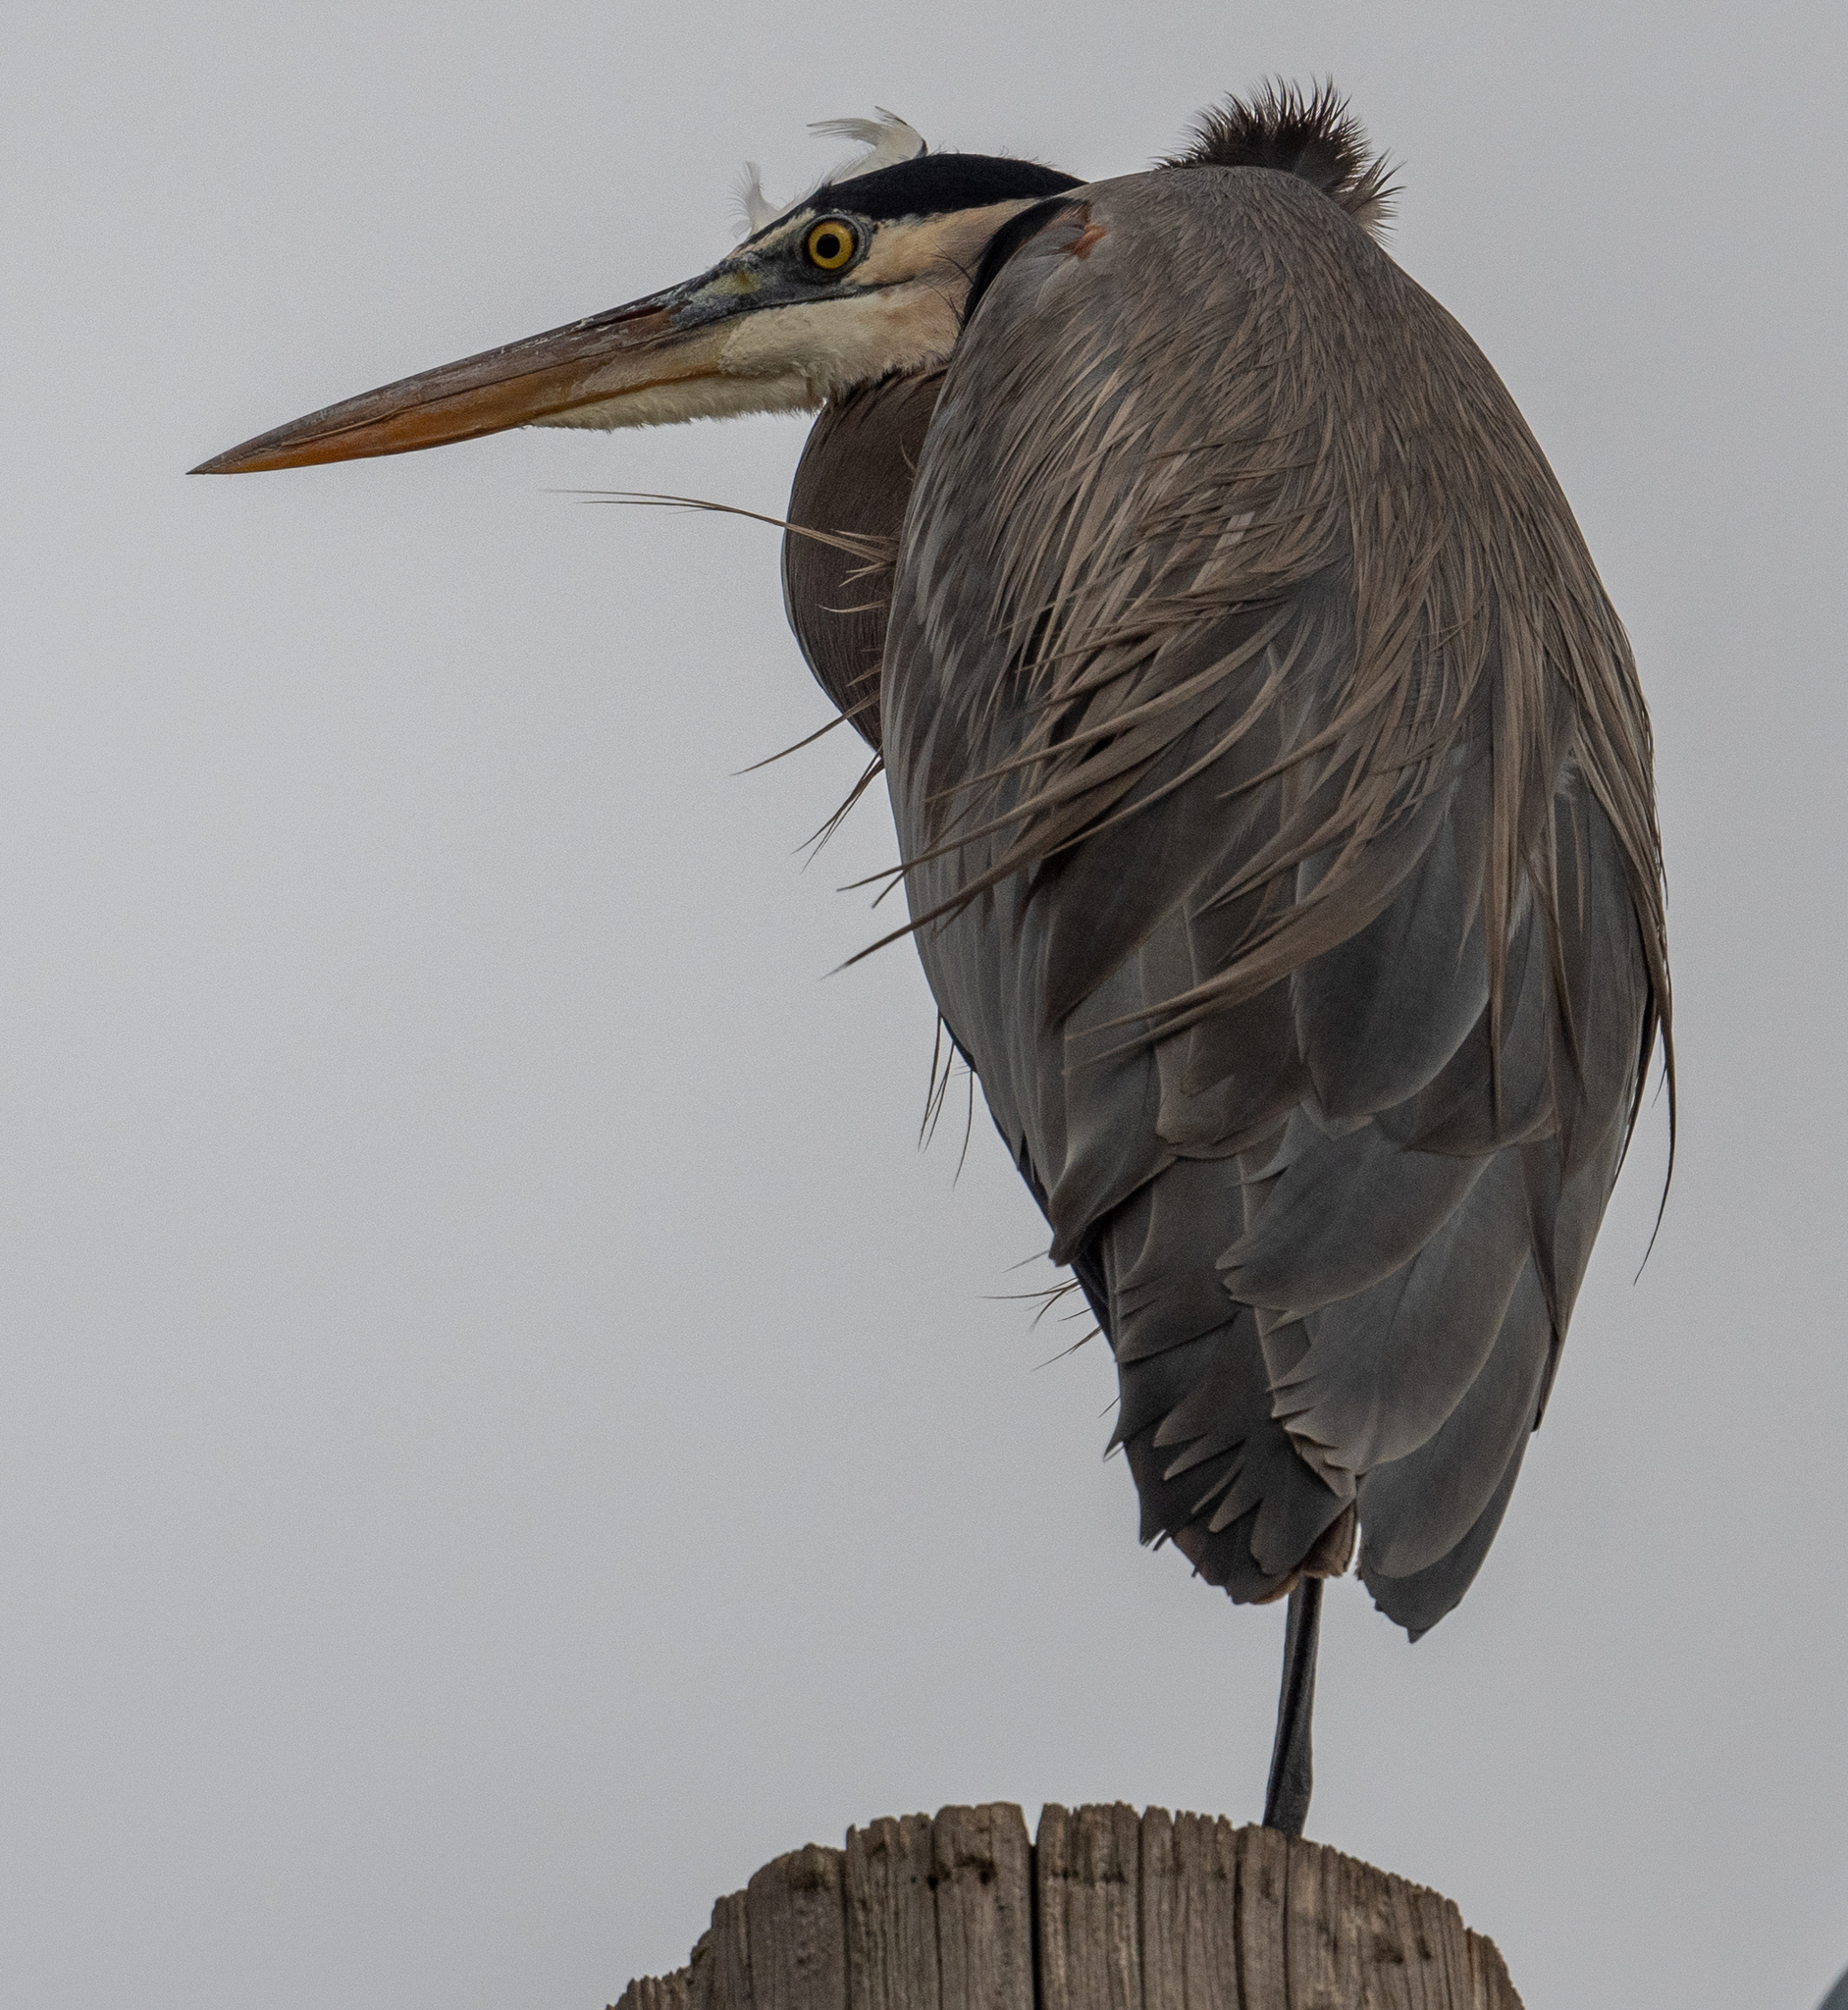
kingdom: Animalia
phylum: Chordata
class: Aves
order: Pelecaniformes
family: Ardeidae
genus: Ardea
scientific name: Ardea herodias
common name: Great blue heron
